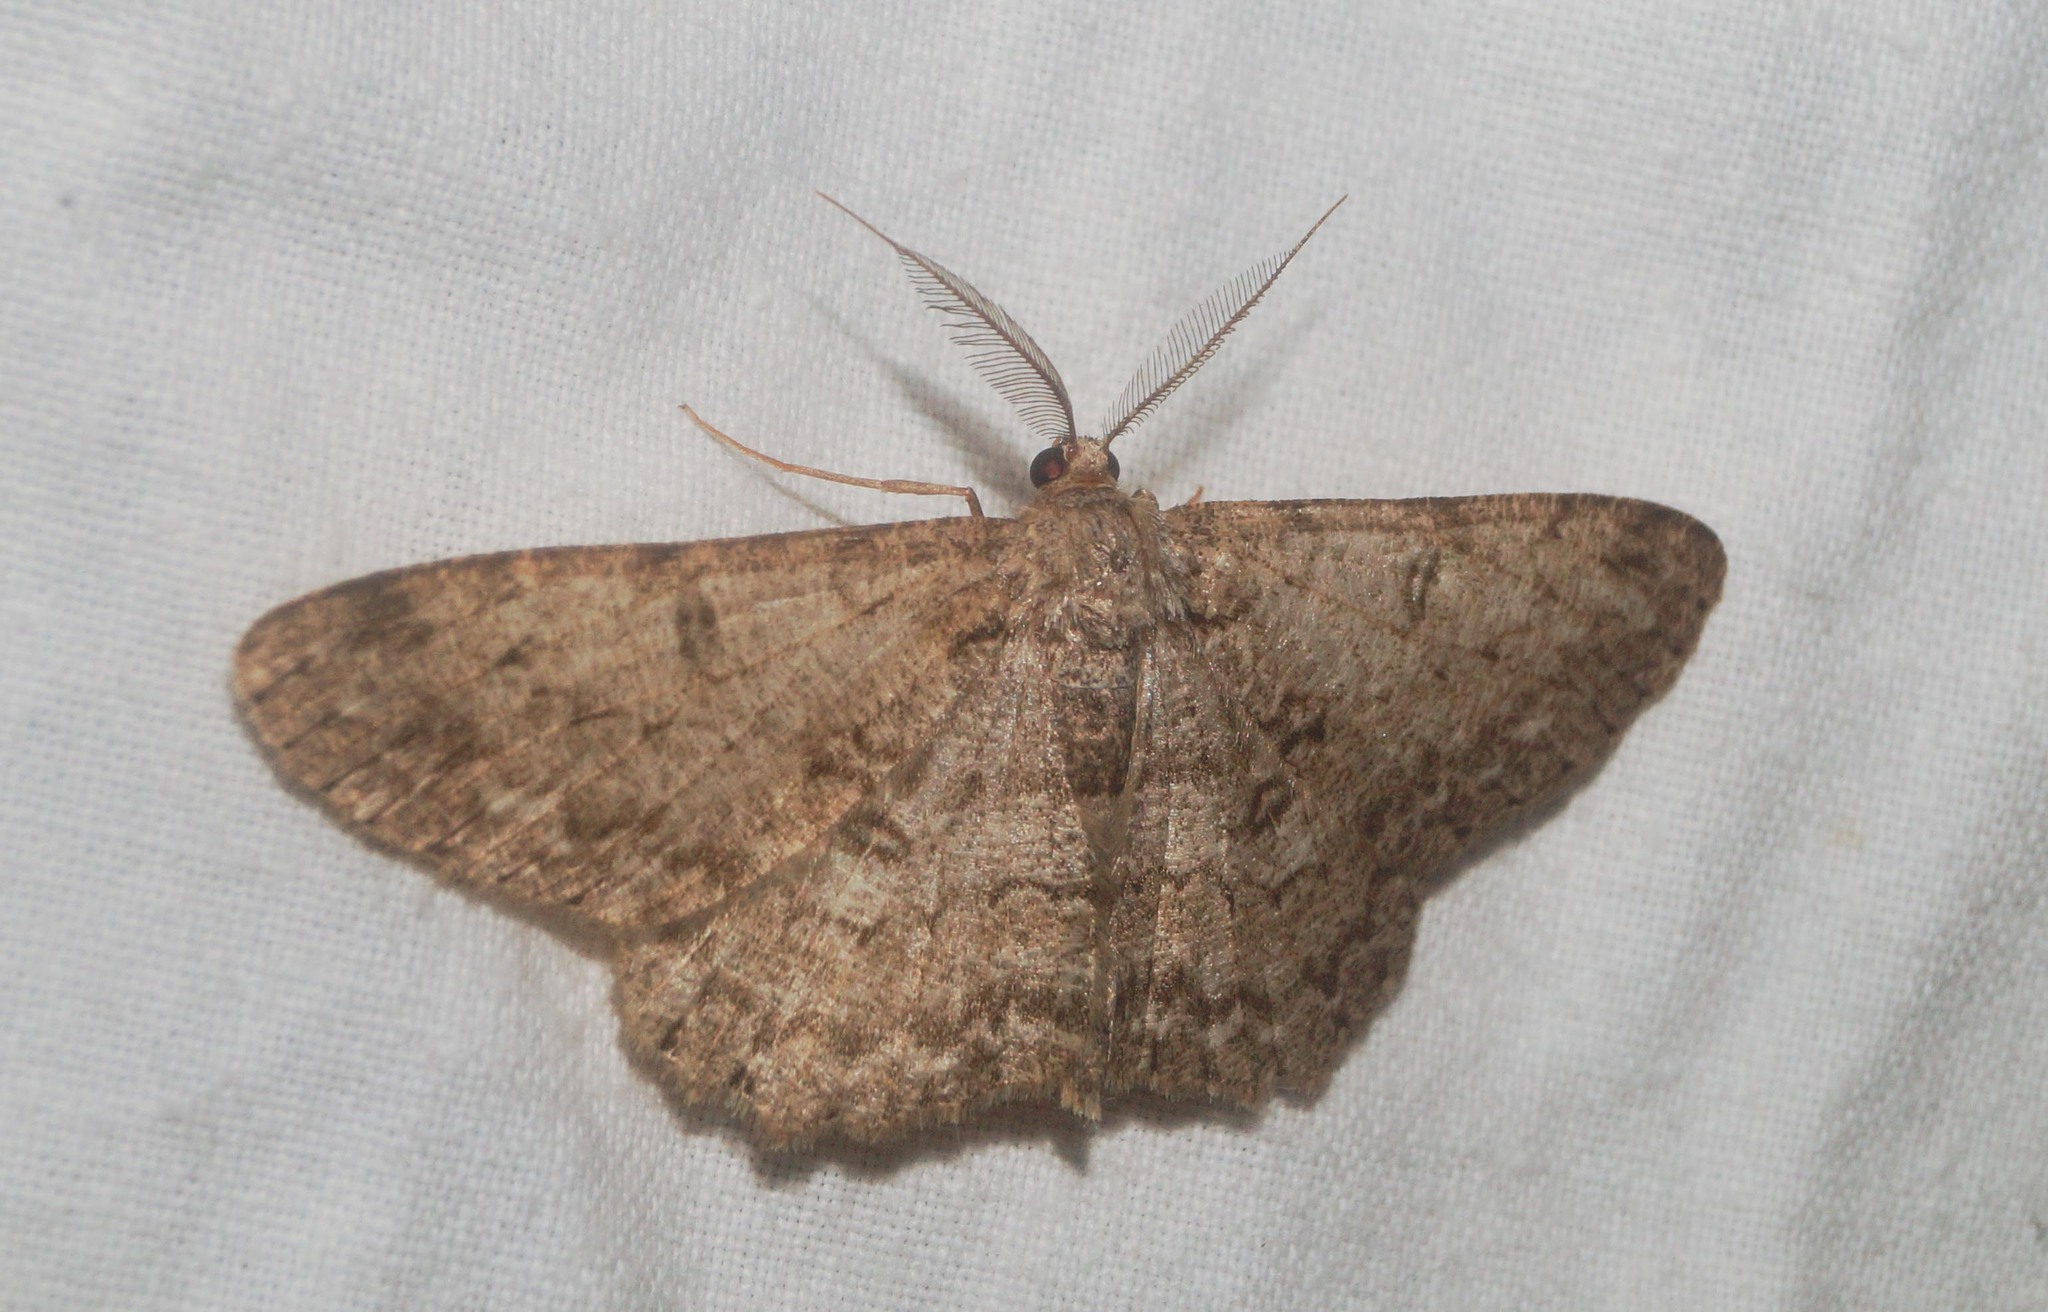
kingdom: Animalia
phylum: Arthropoda
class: Insecta
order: Lepidoptera
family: Geometridae
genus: Hypomecis
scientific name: Hypomecis punctinalis
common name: Pale oak beauty
